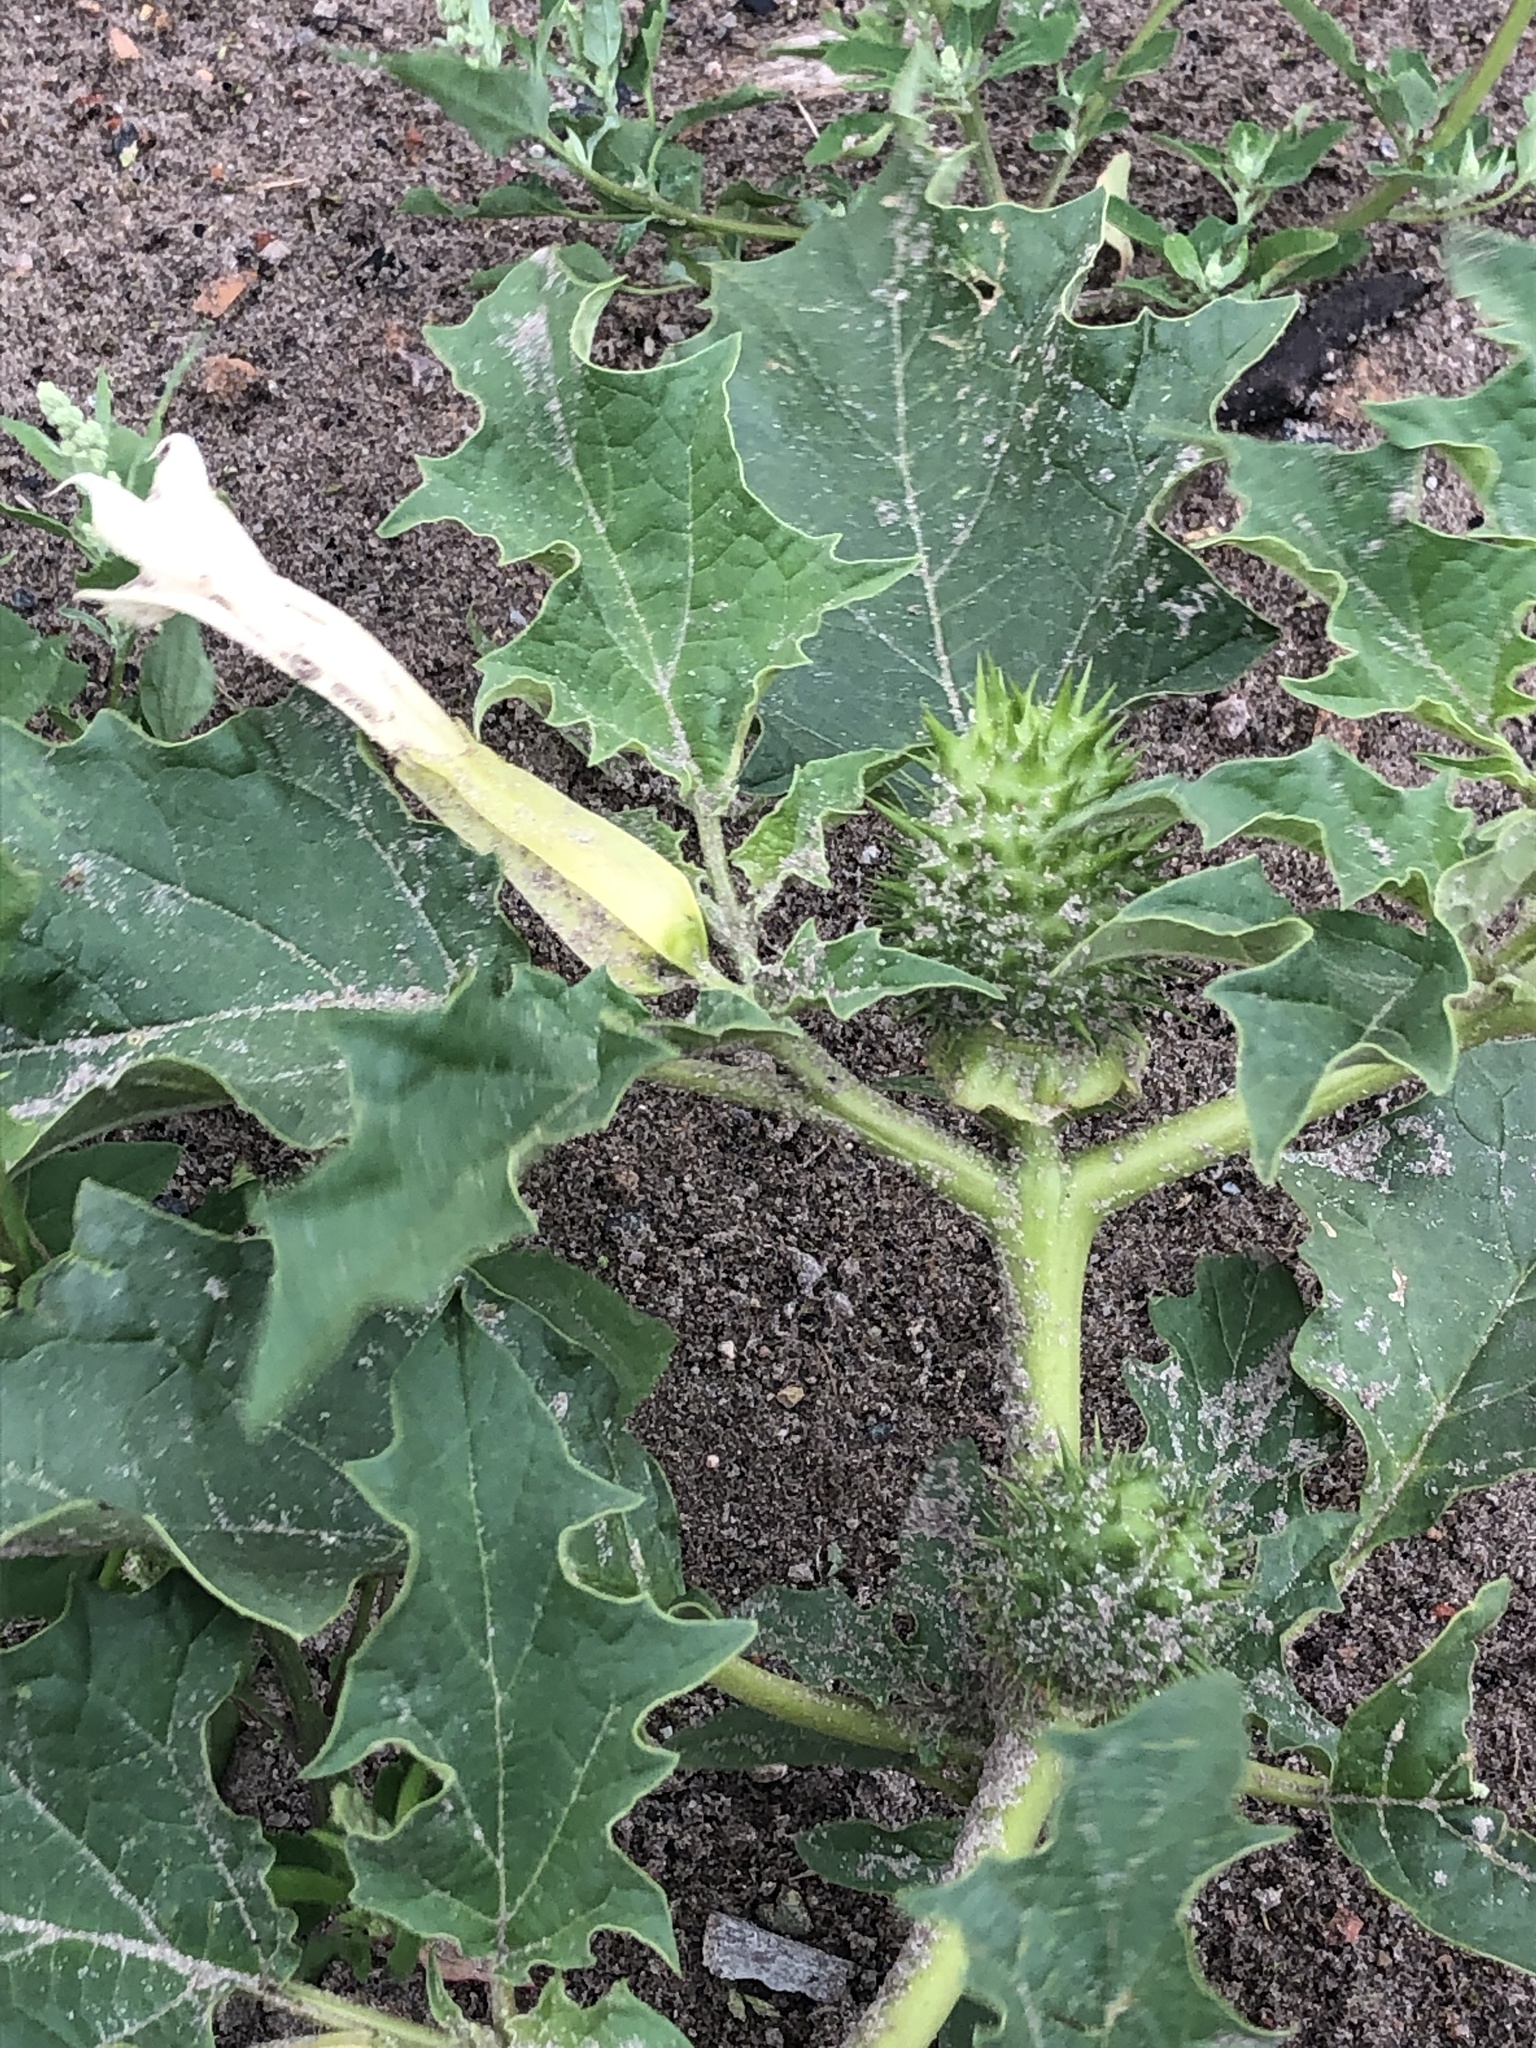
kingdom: Plantae
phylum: Tracheophyta
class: Magnoliopsida
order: Solanales
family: Solanaceae
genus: Datura
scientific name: Datura stramonium
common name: Thorn-apple
